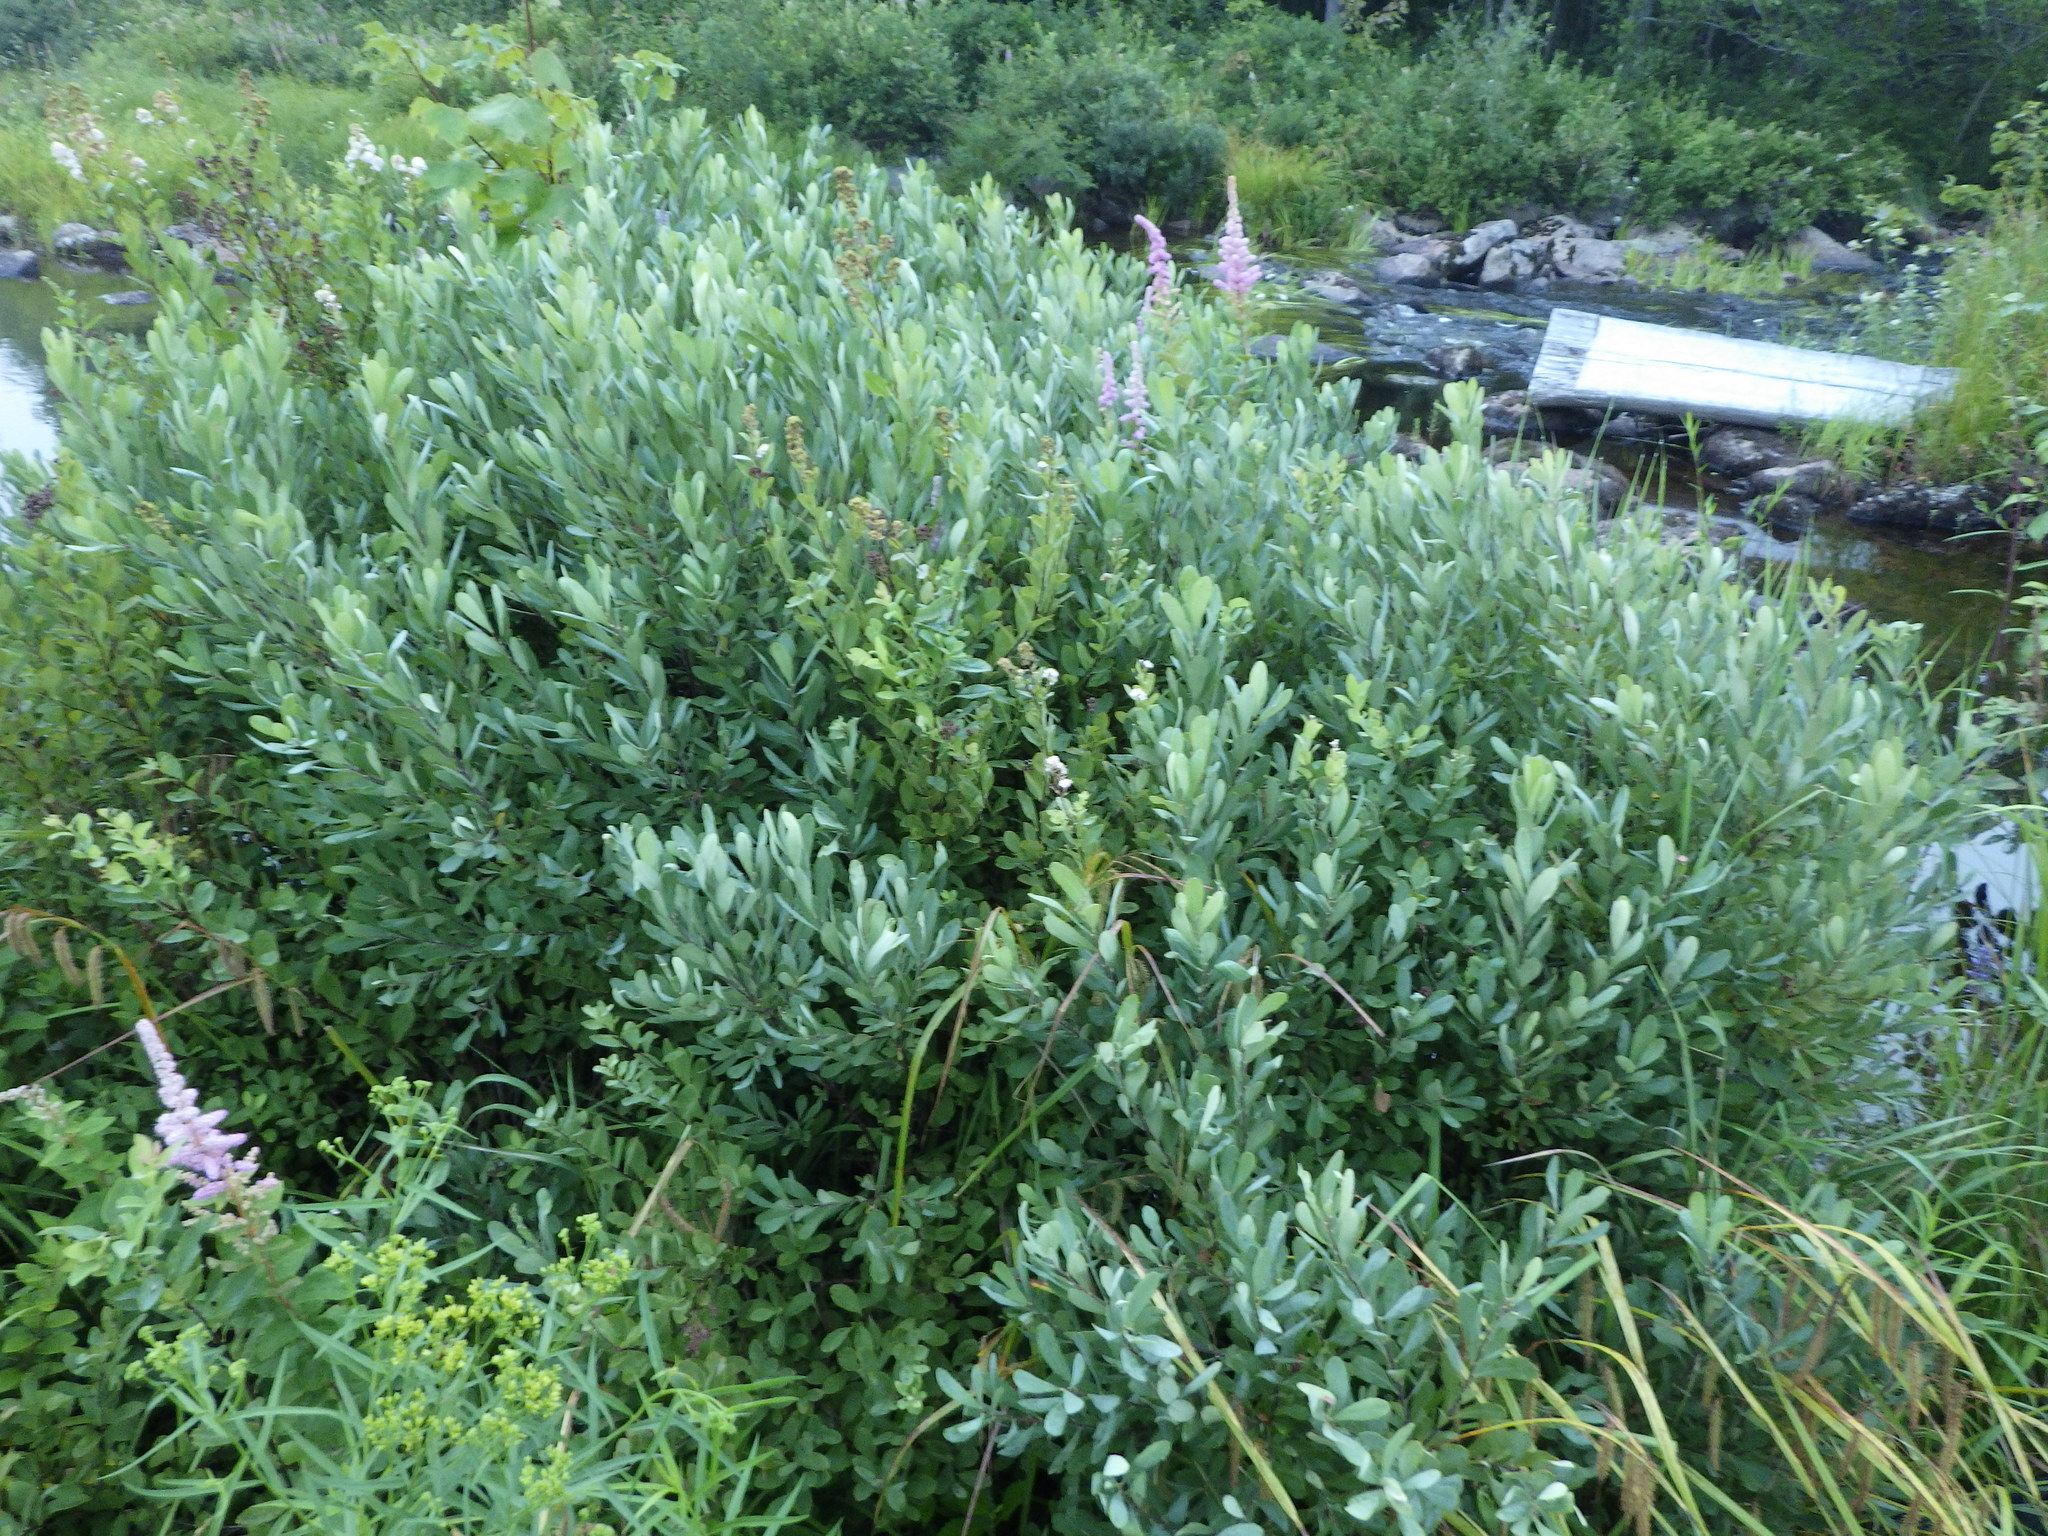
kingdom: Plantae
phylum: Tracheophyta
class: Magnoliopsida
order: Fagales
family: Myricaceae
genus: Myrica
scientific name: Myrica gale
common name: Sweet gale
